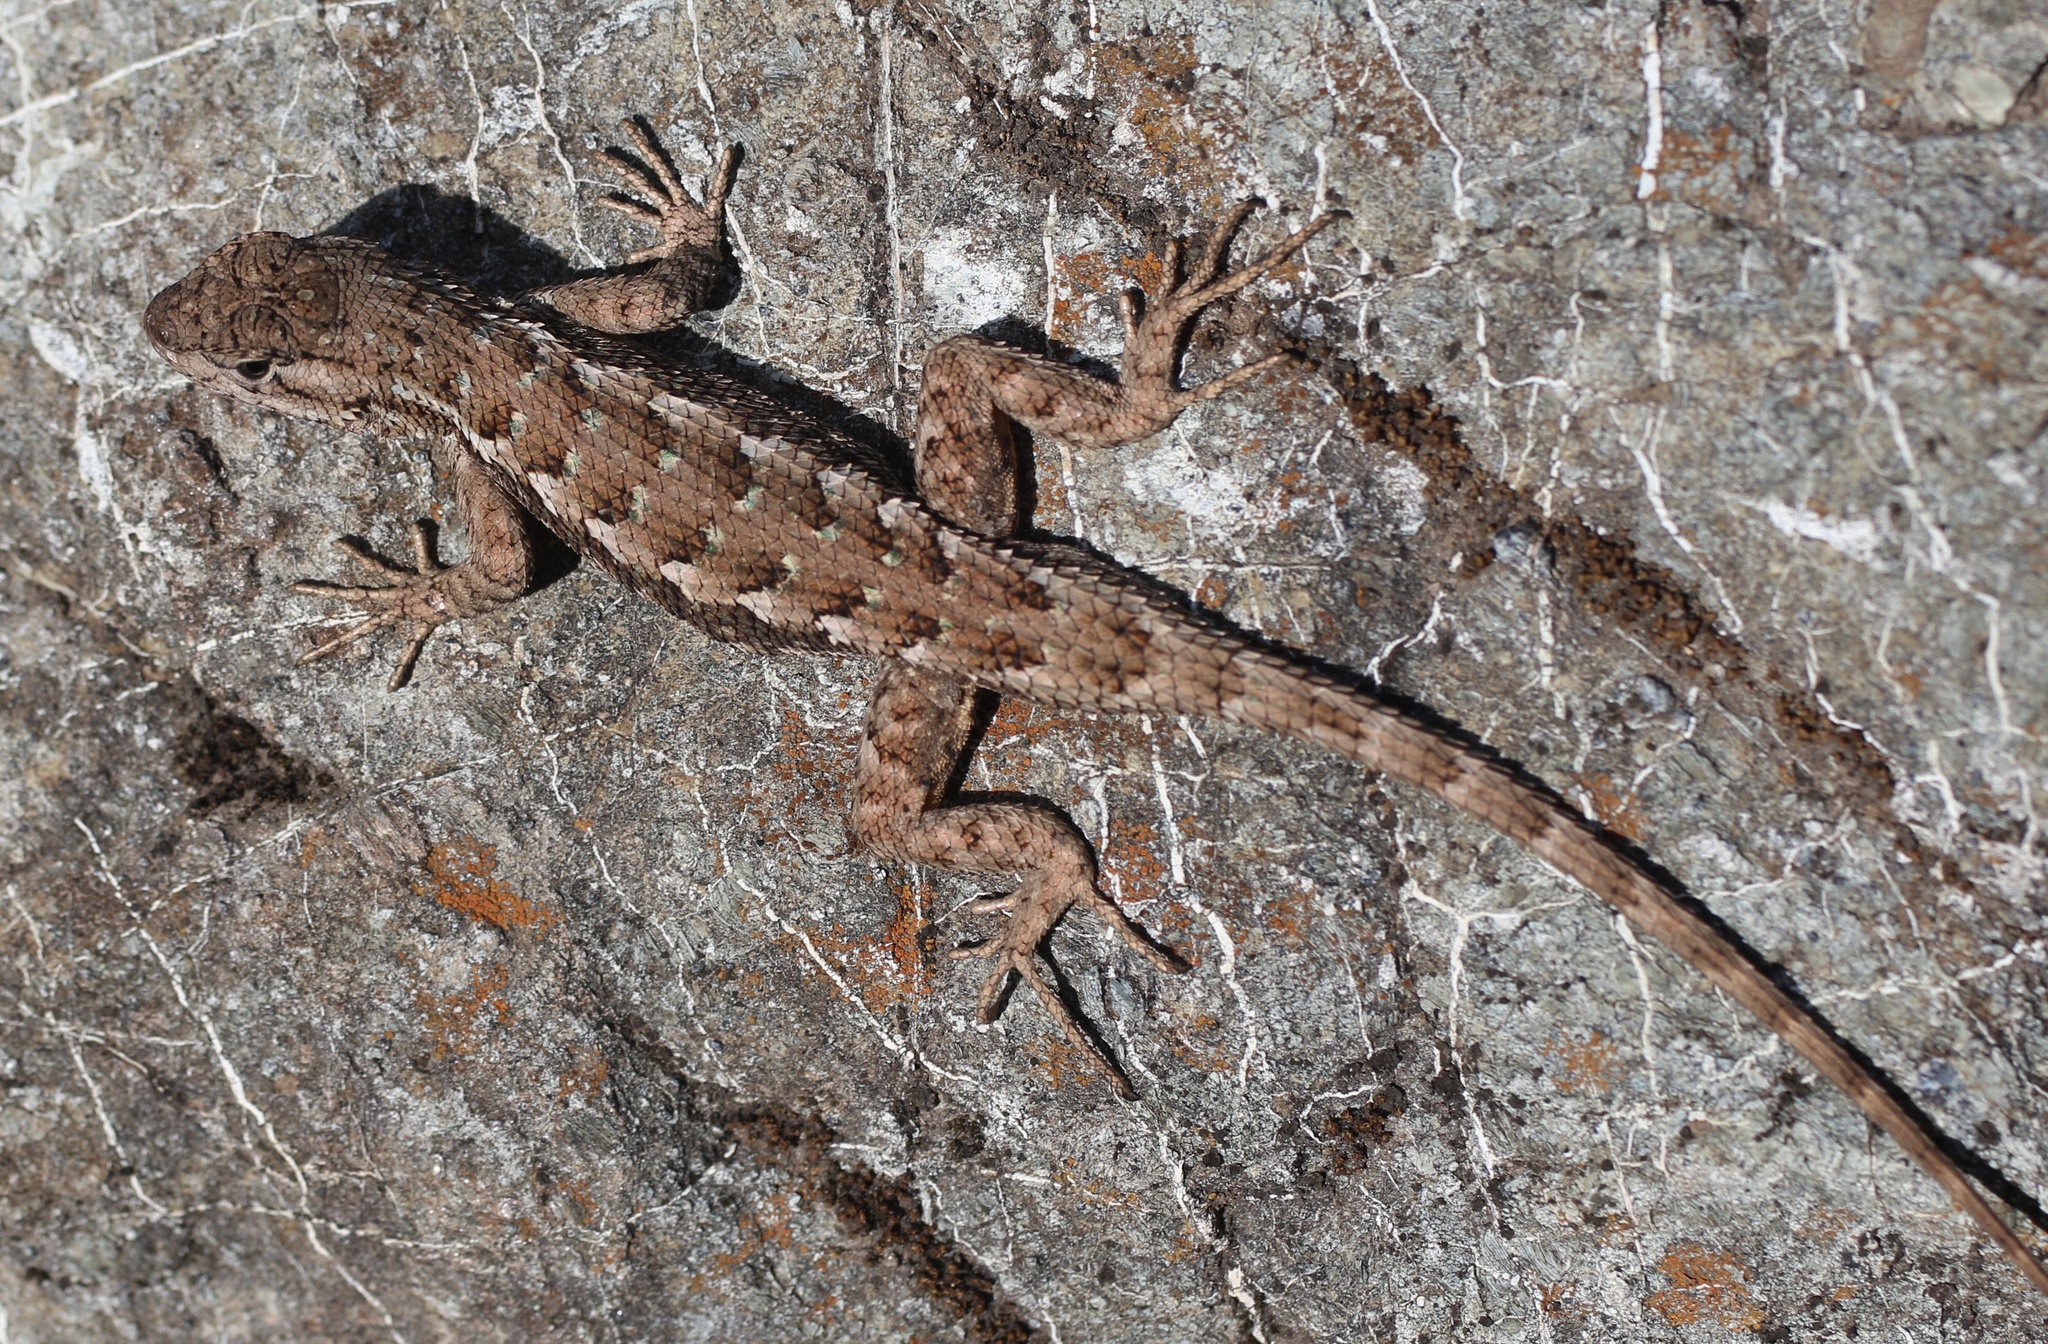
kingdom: Animalia
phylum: Chordata
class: Squamata
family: Phrynosomatidae
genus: Sceloporus
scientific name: Sceloporus occidentalis
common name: Western fence lizard
